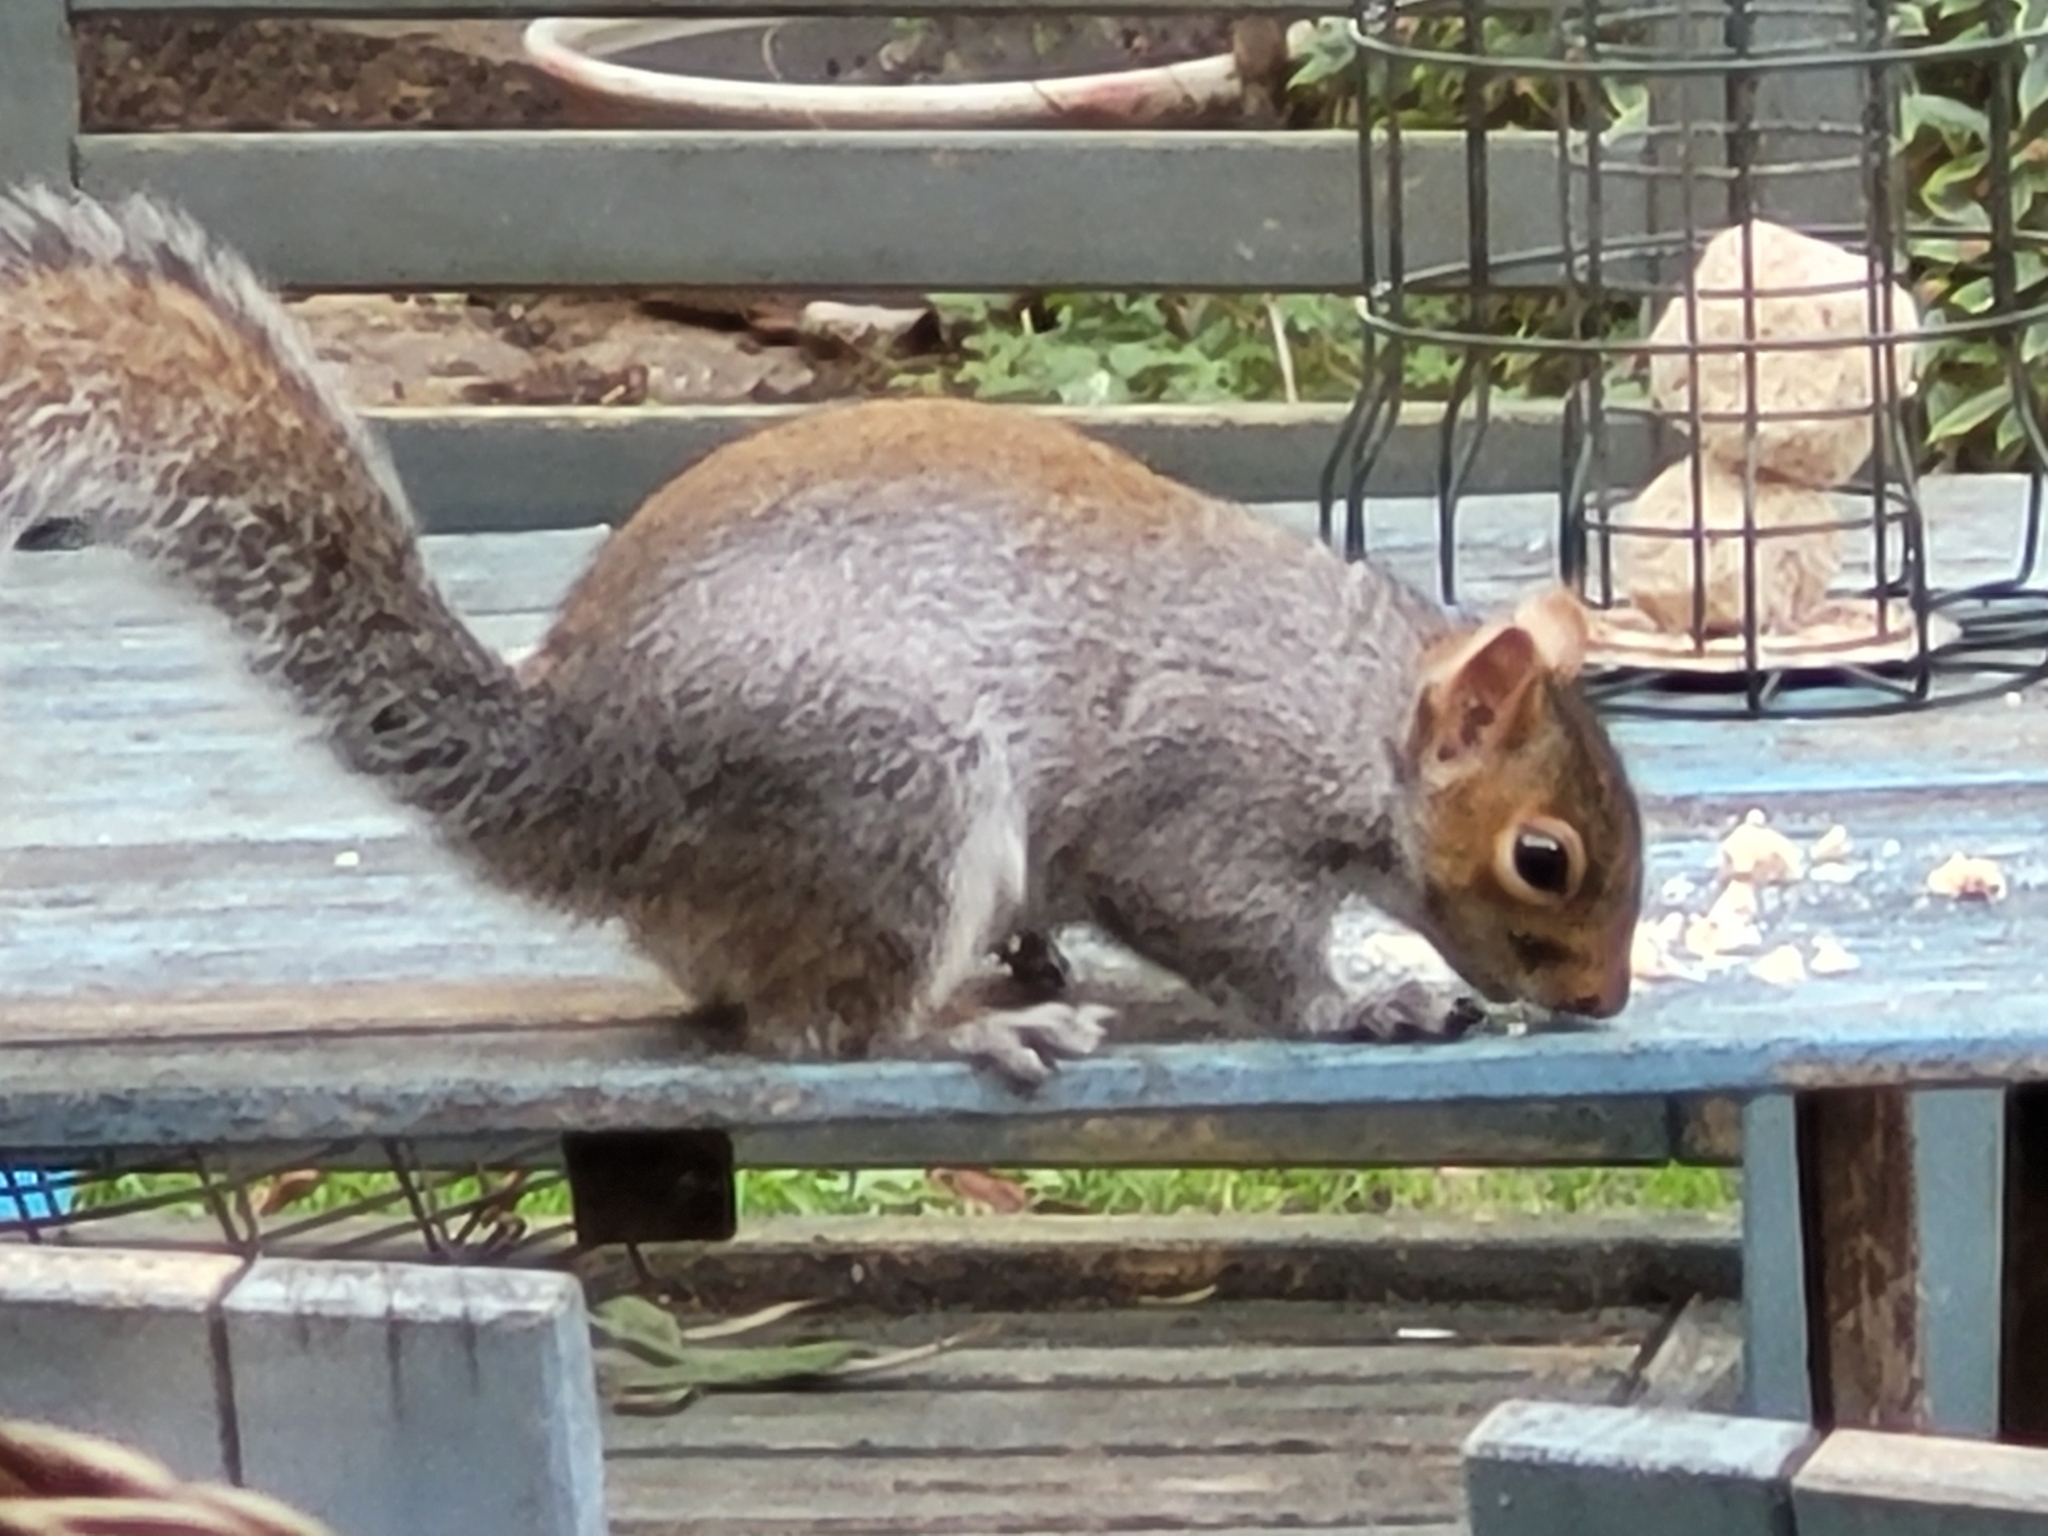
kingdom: Animalia
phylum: Chordata
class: Mammalia
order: Rodentia
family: Sciuridae
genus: Sciurus
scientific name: Sciurus carolinensis
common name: Eastern gray squirrel
